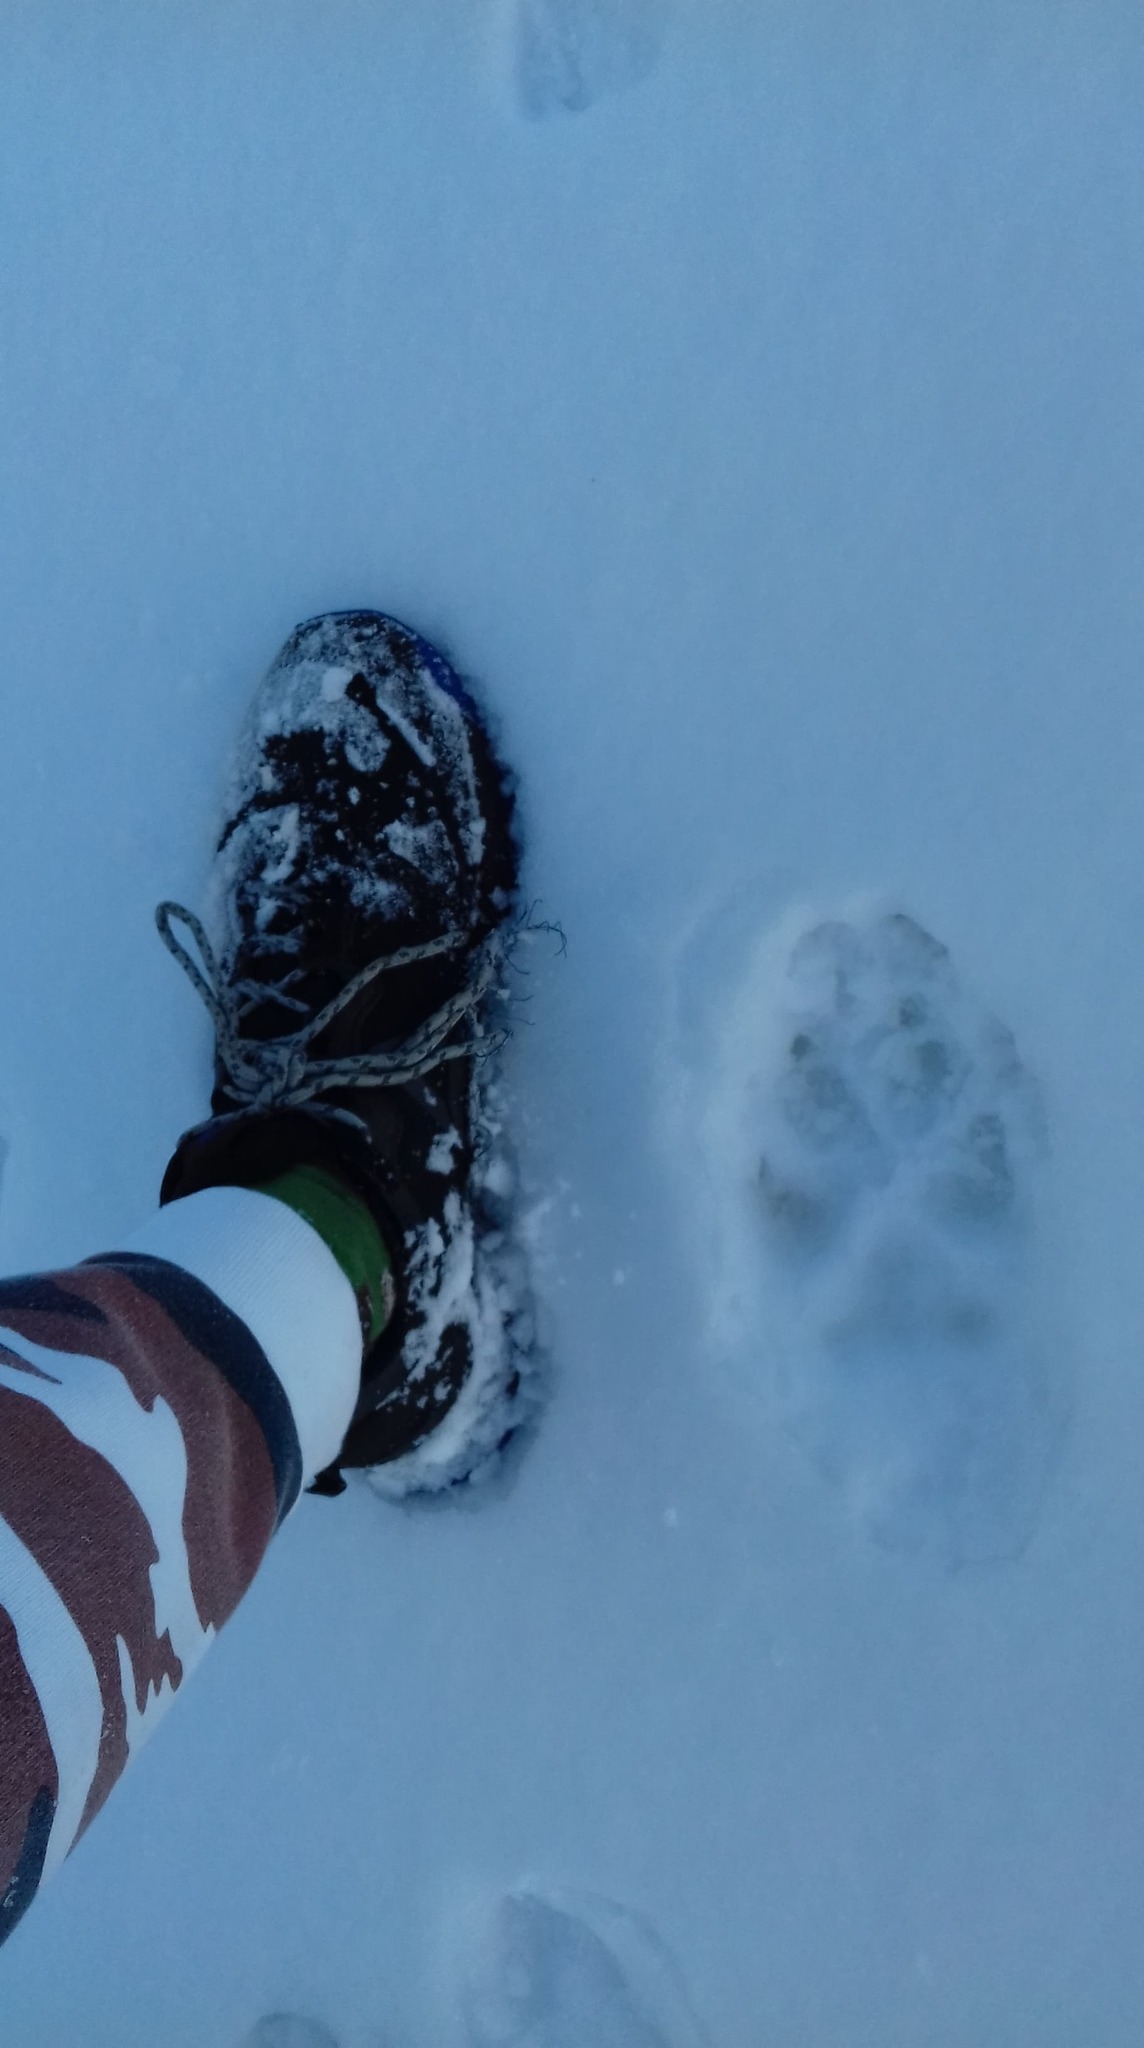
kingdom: Animalia
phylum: Chordata
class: Mammalia
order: Carnivora
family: Canidae
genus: Canis
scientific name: Canis lupus
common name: Gray wolf
